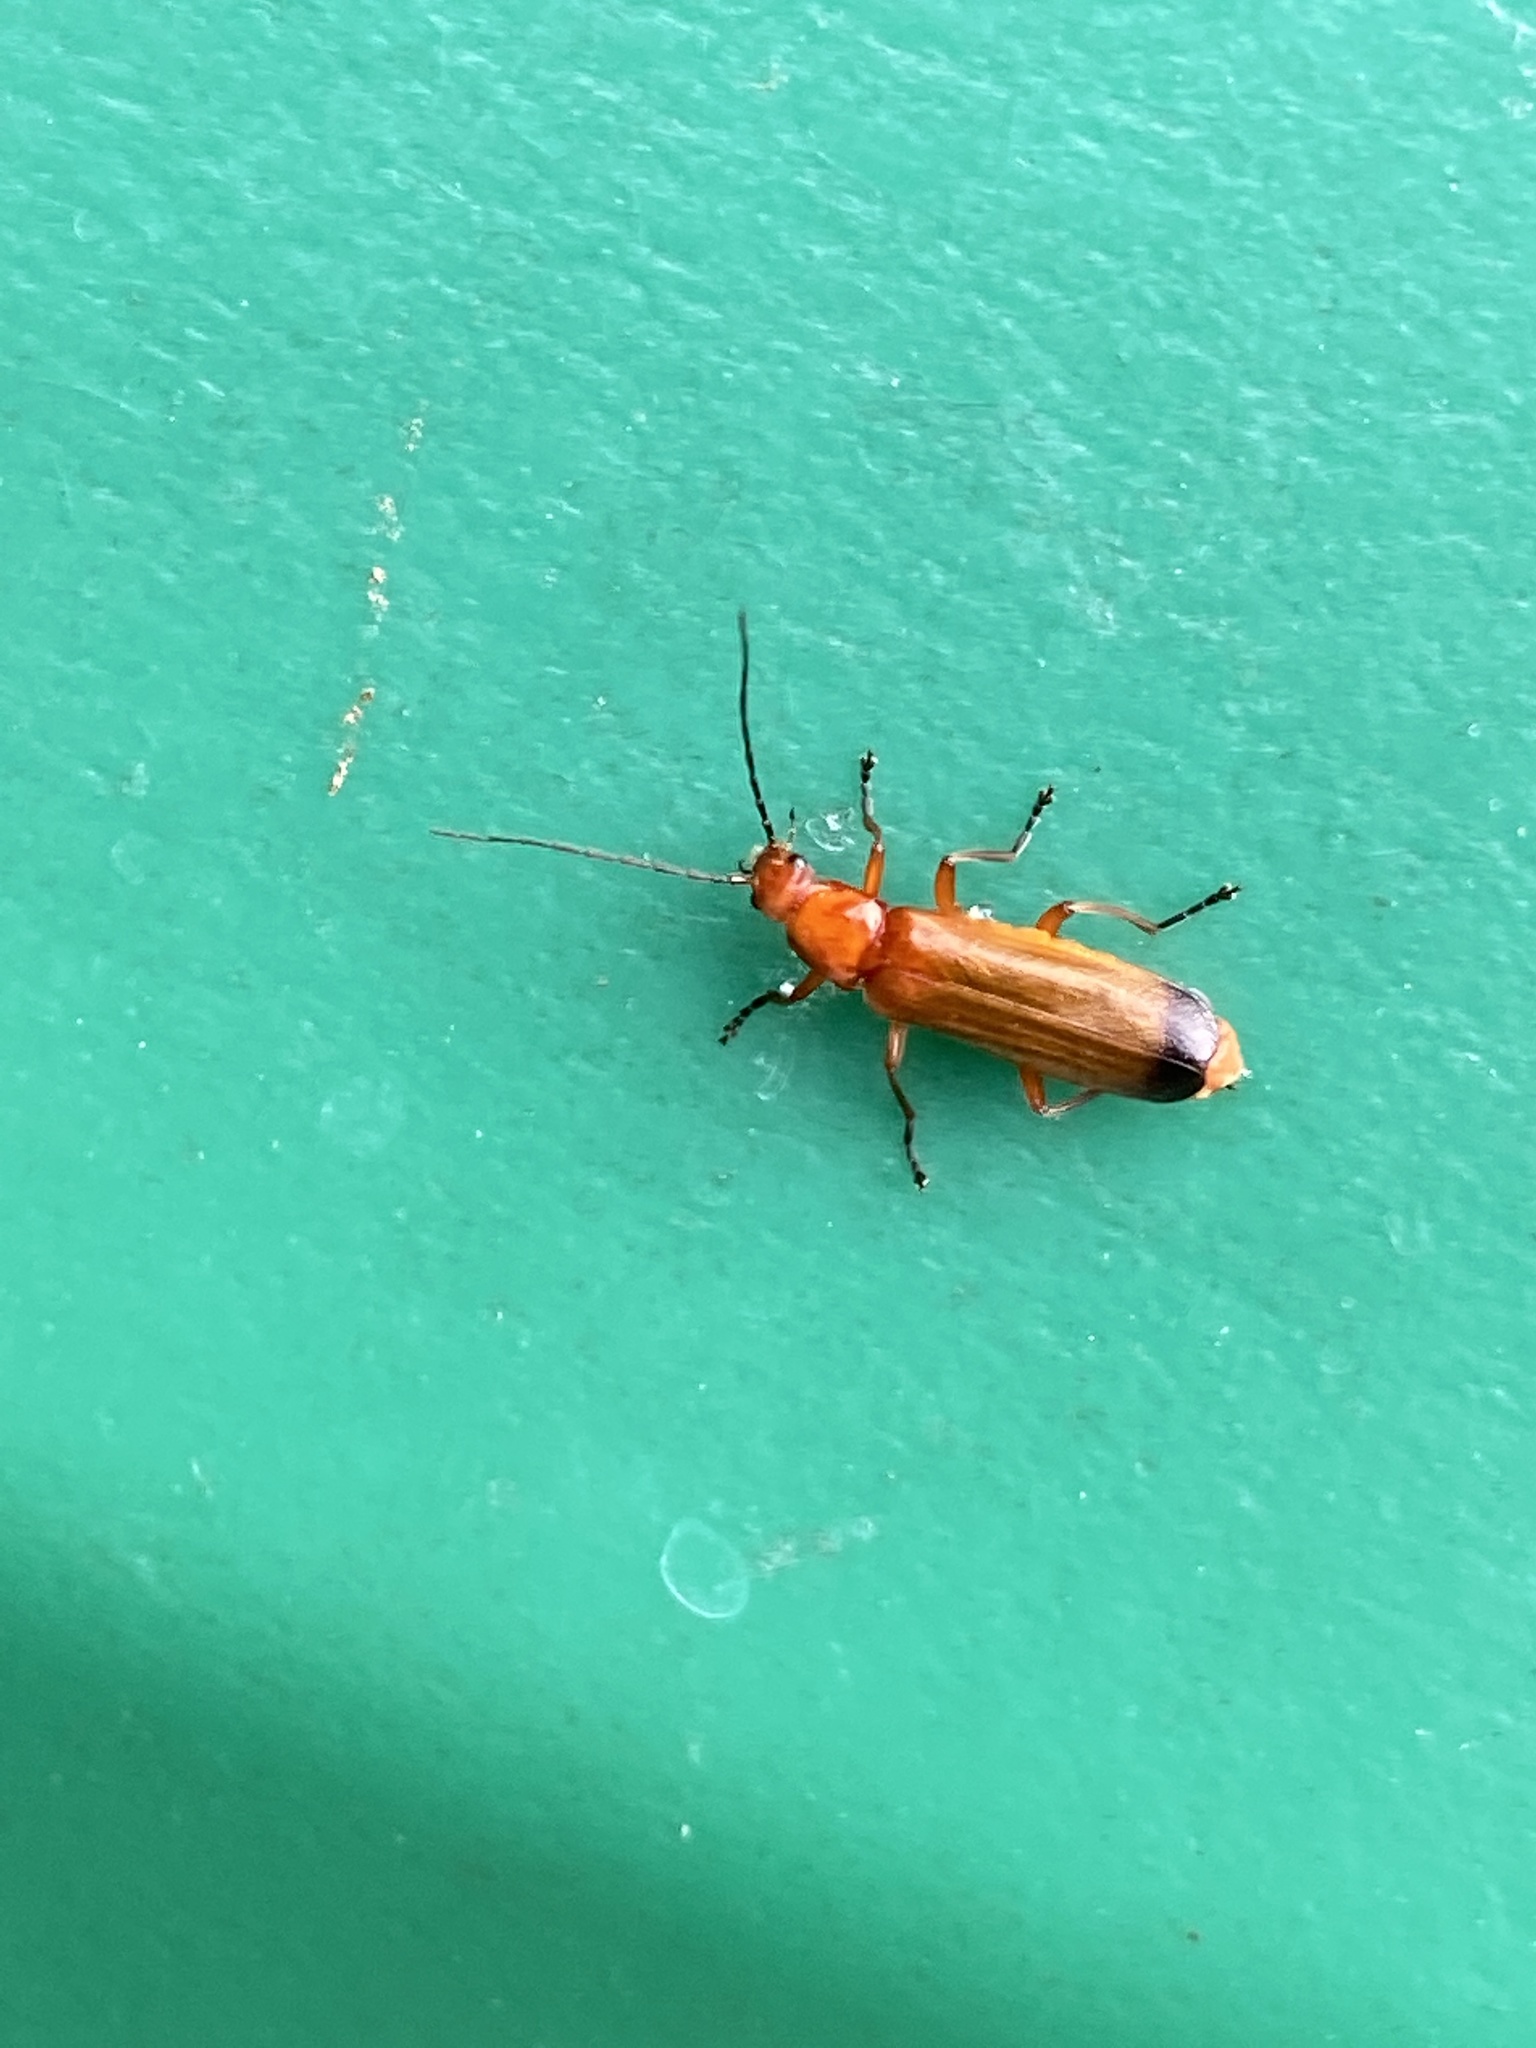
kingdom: Animalia
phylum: Arthropoda
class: Insecta
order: Coleoptera
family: Cantharidae
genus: Rhagonycha
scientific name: Rhagonycha fulva
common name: Common red soldier beetle
